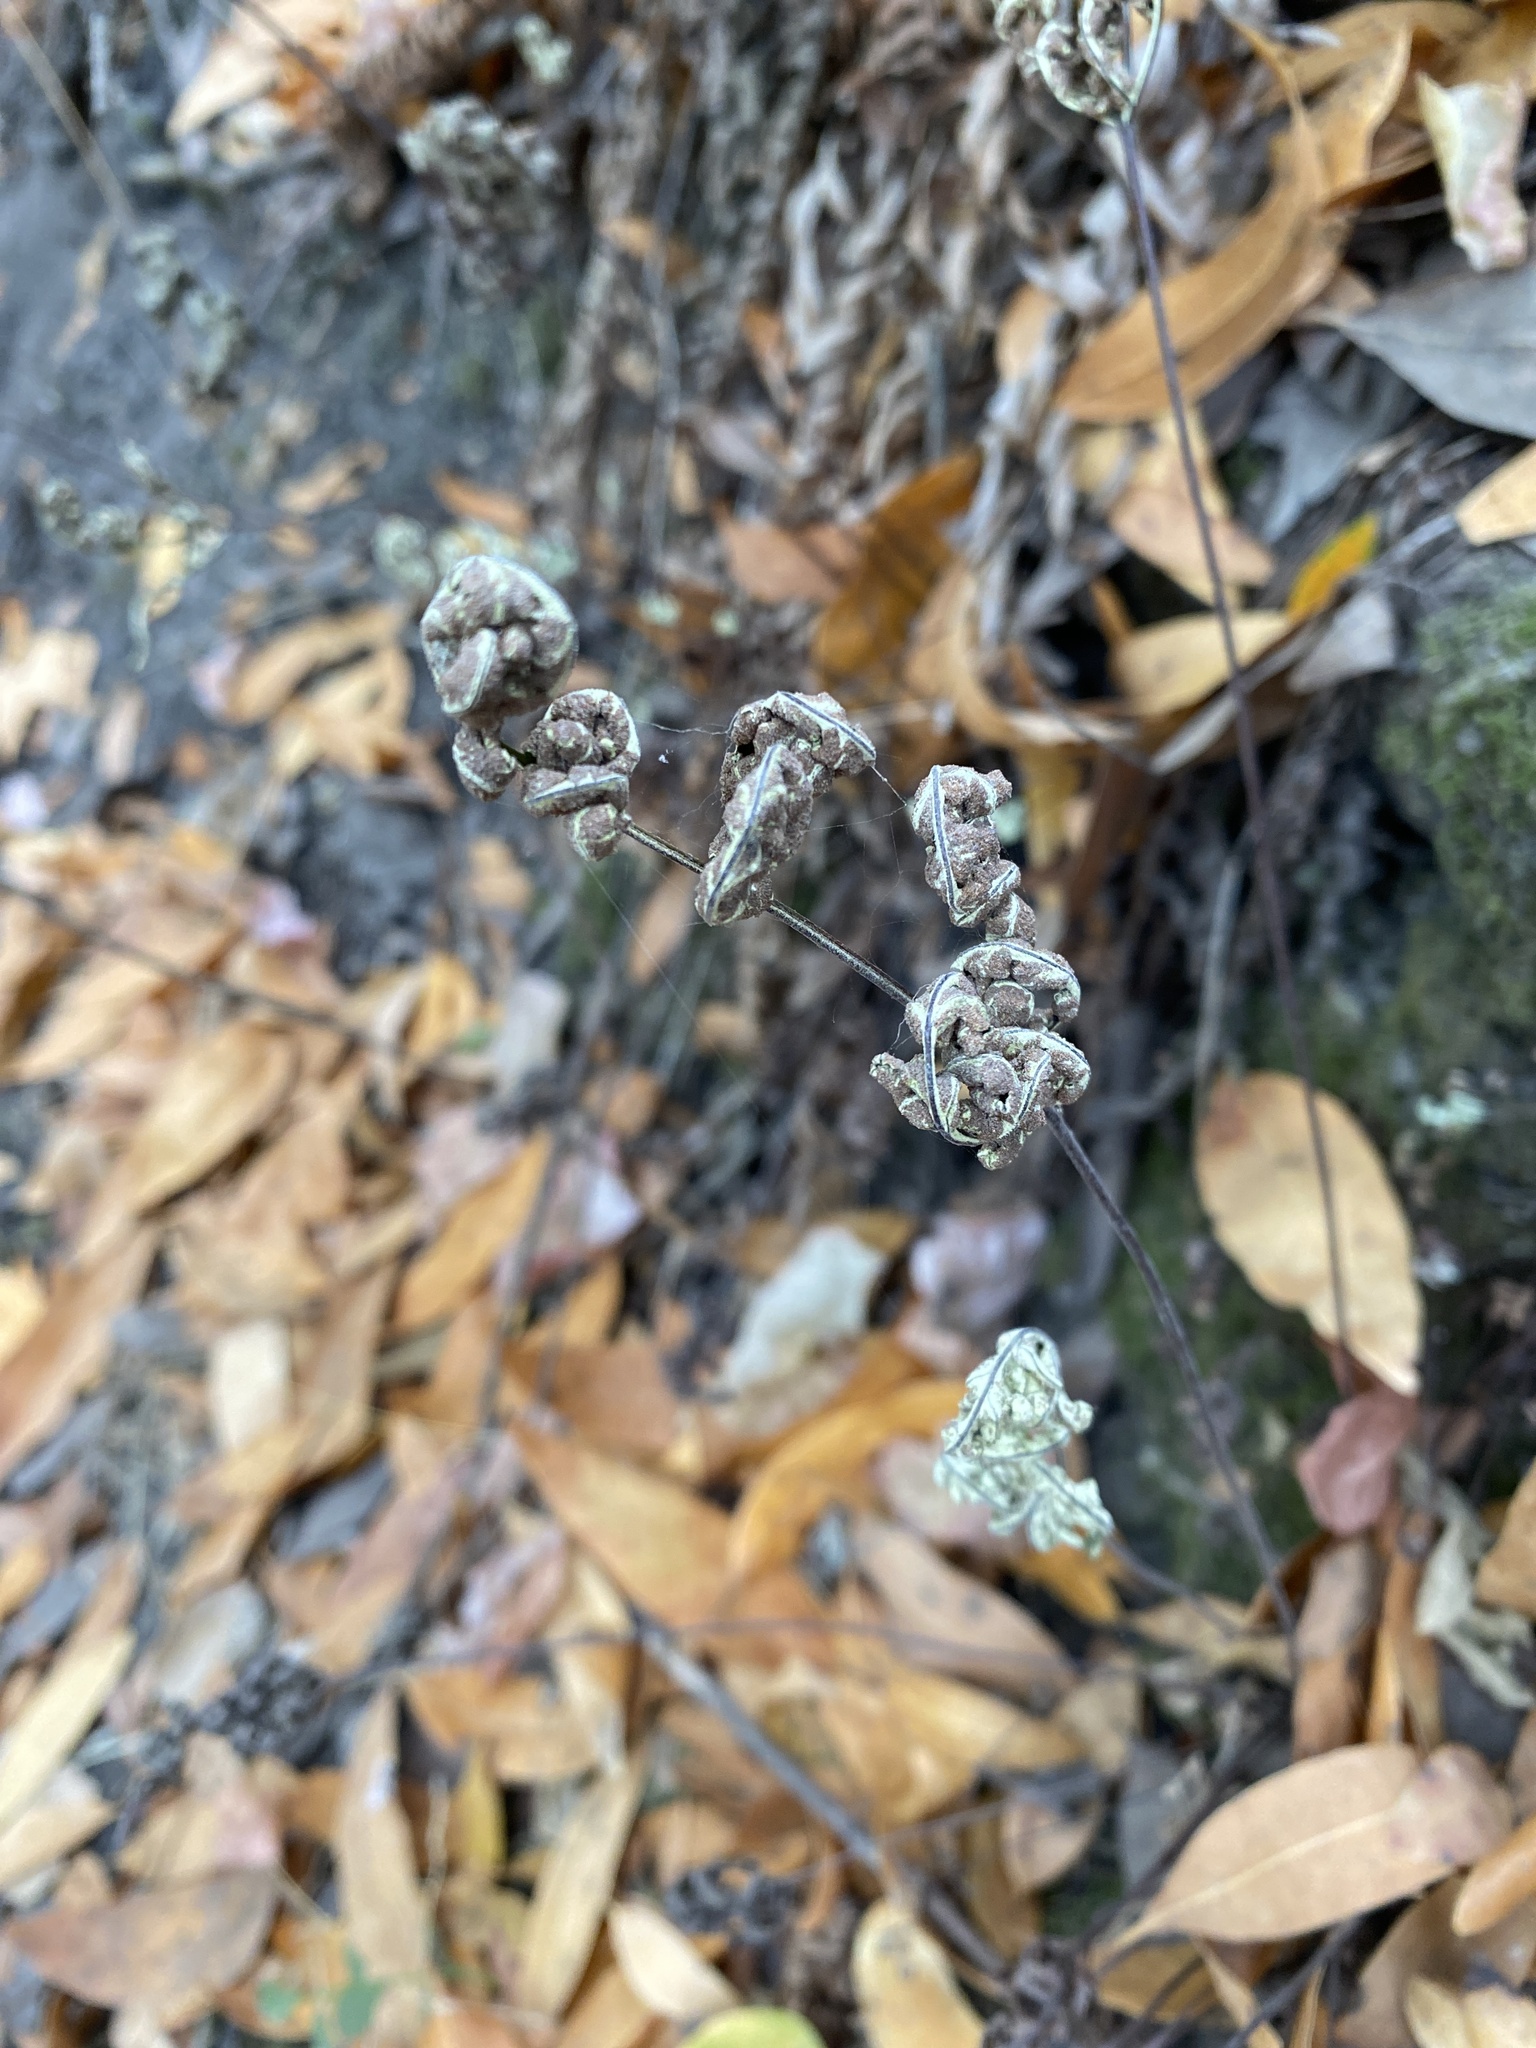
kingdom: Plantae
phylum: Tracheophyta
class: Polypodiopsida
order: Polypodiales
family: Pteridaceae
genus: Pentagramma
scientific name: Pentagramma triangularis
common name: Gold fern
